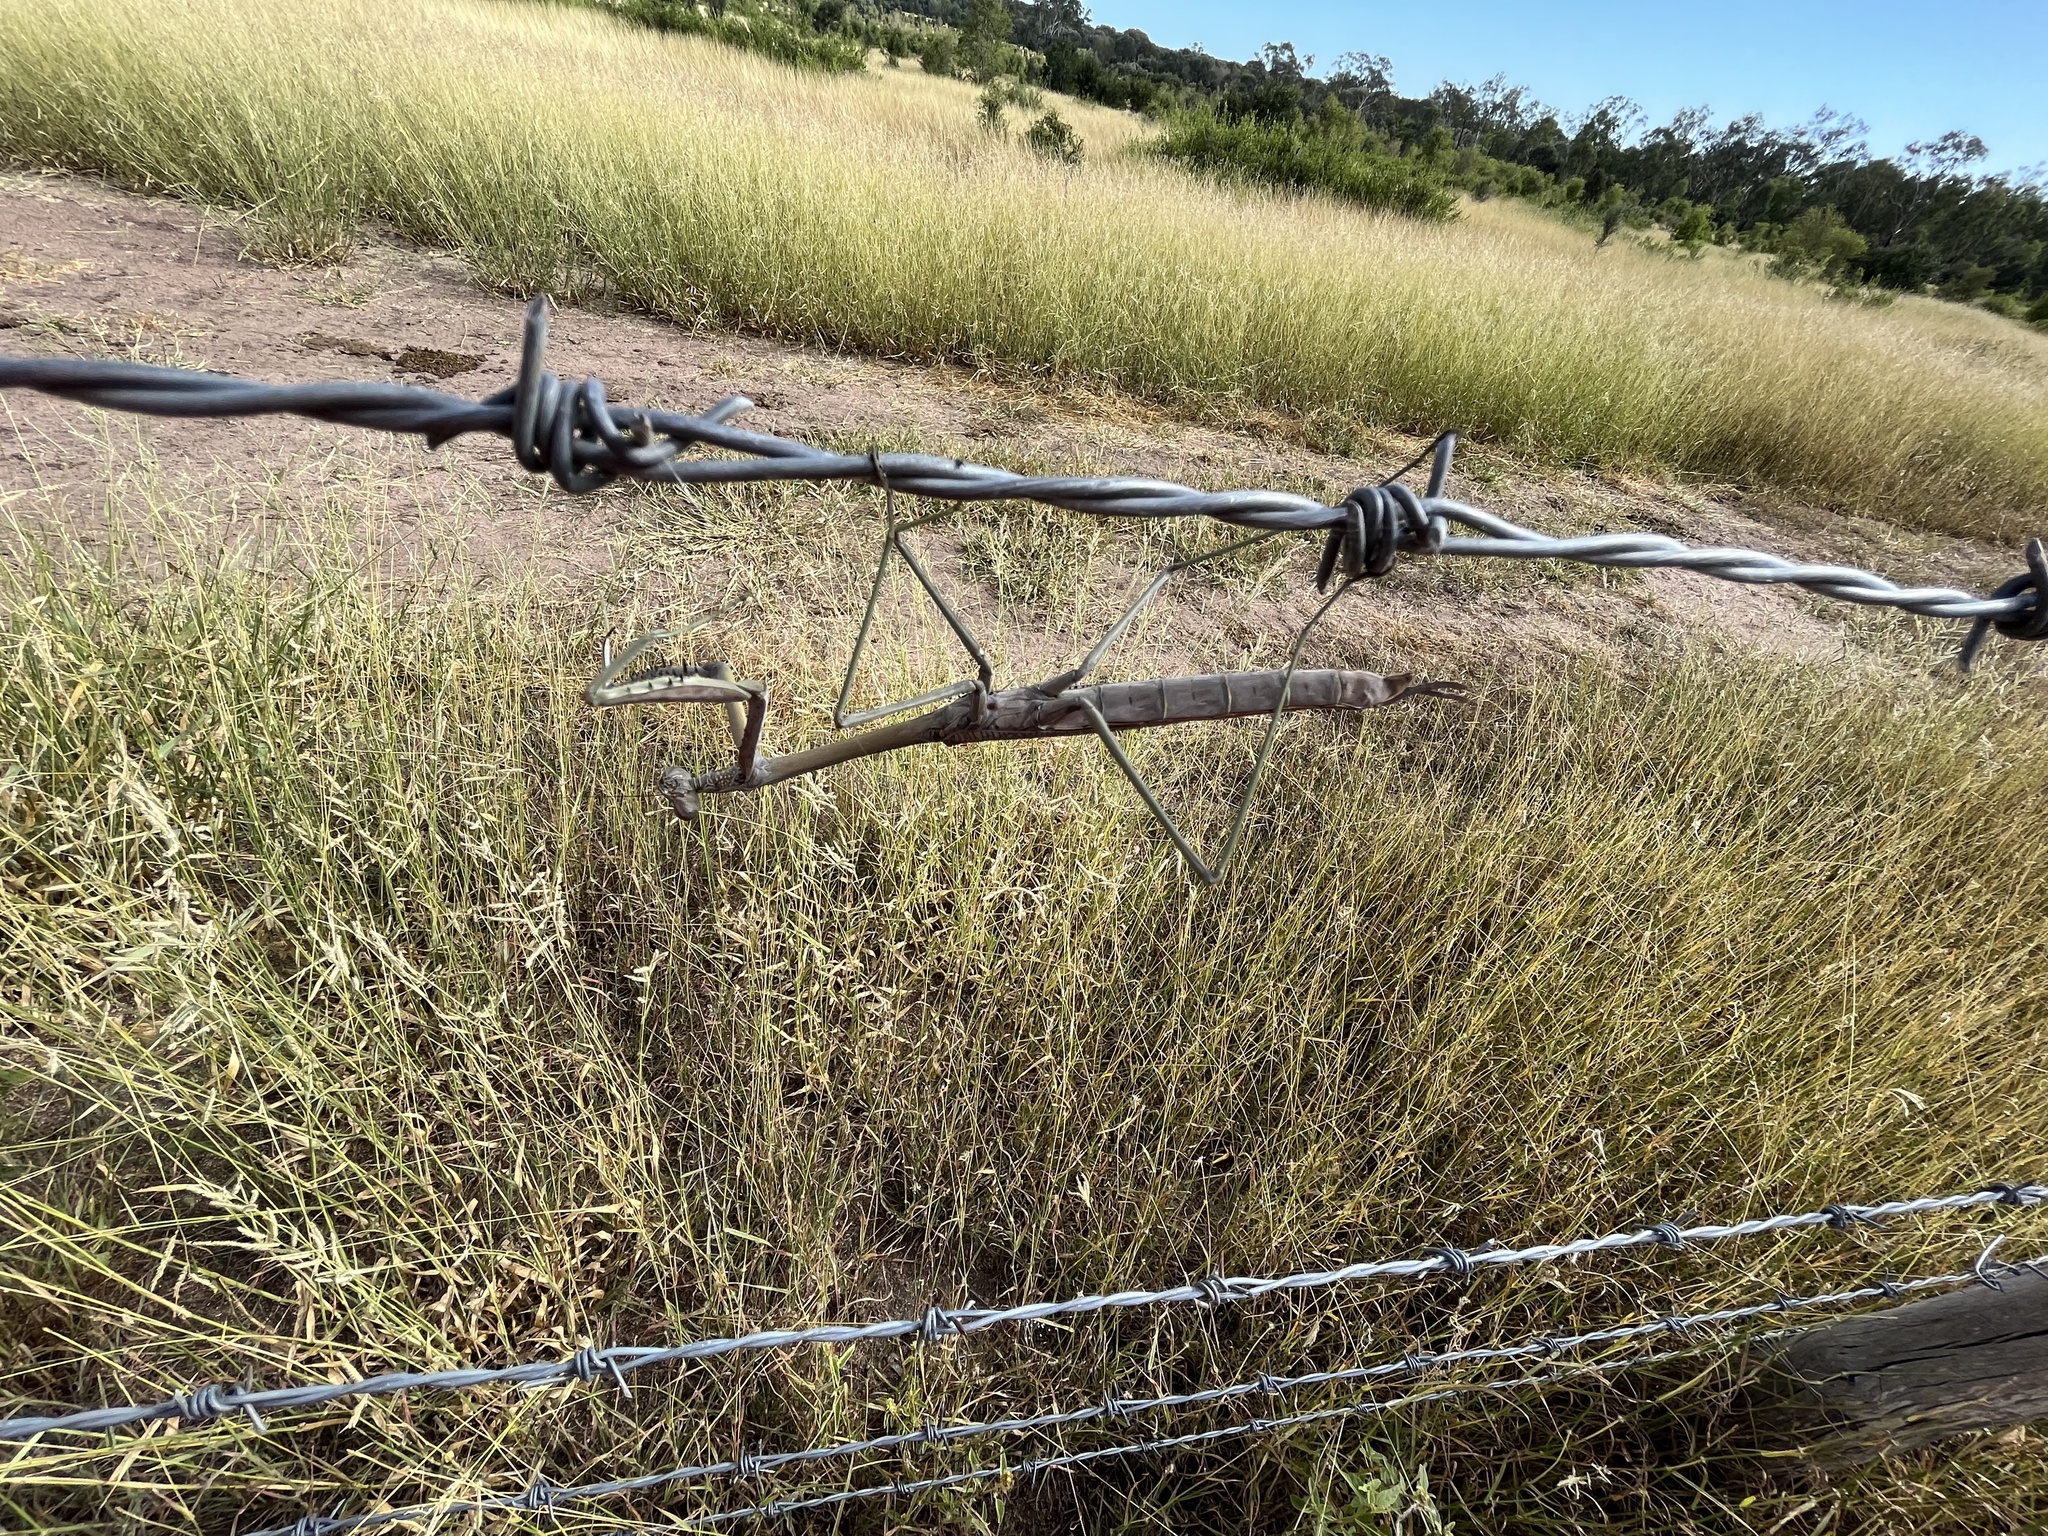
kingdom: Animalia
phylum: Arthropoda
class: Insecta
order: Mantodea
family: Mantidae
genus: Archimantis
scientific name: Archimantis latistyla
